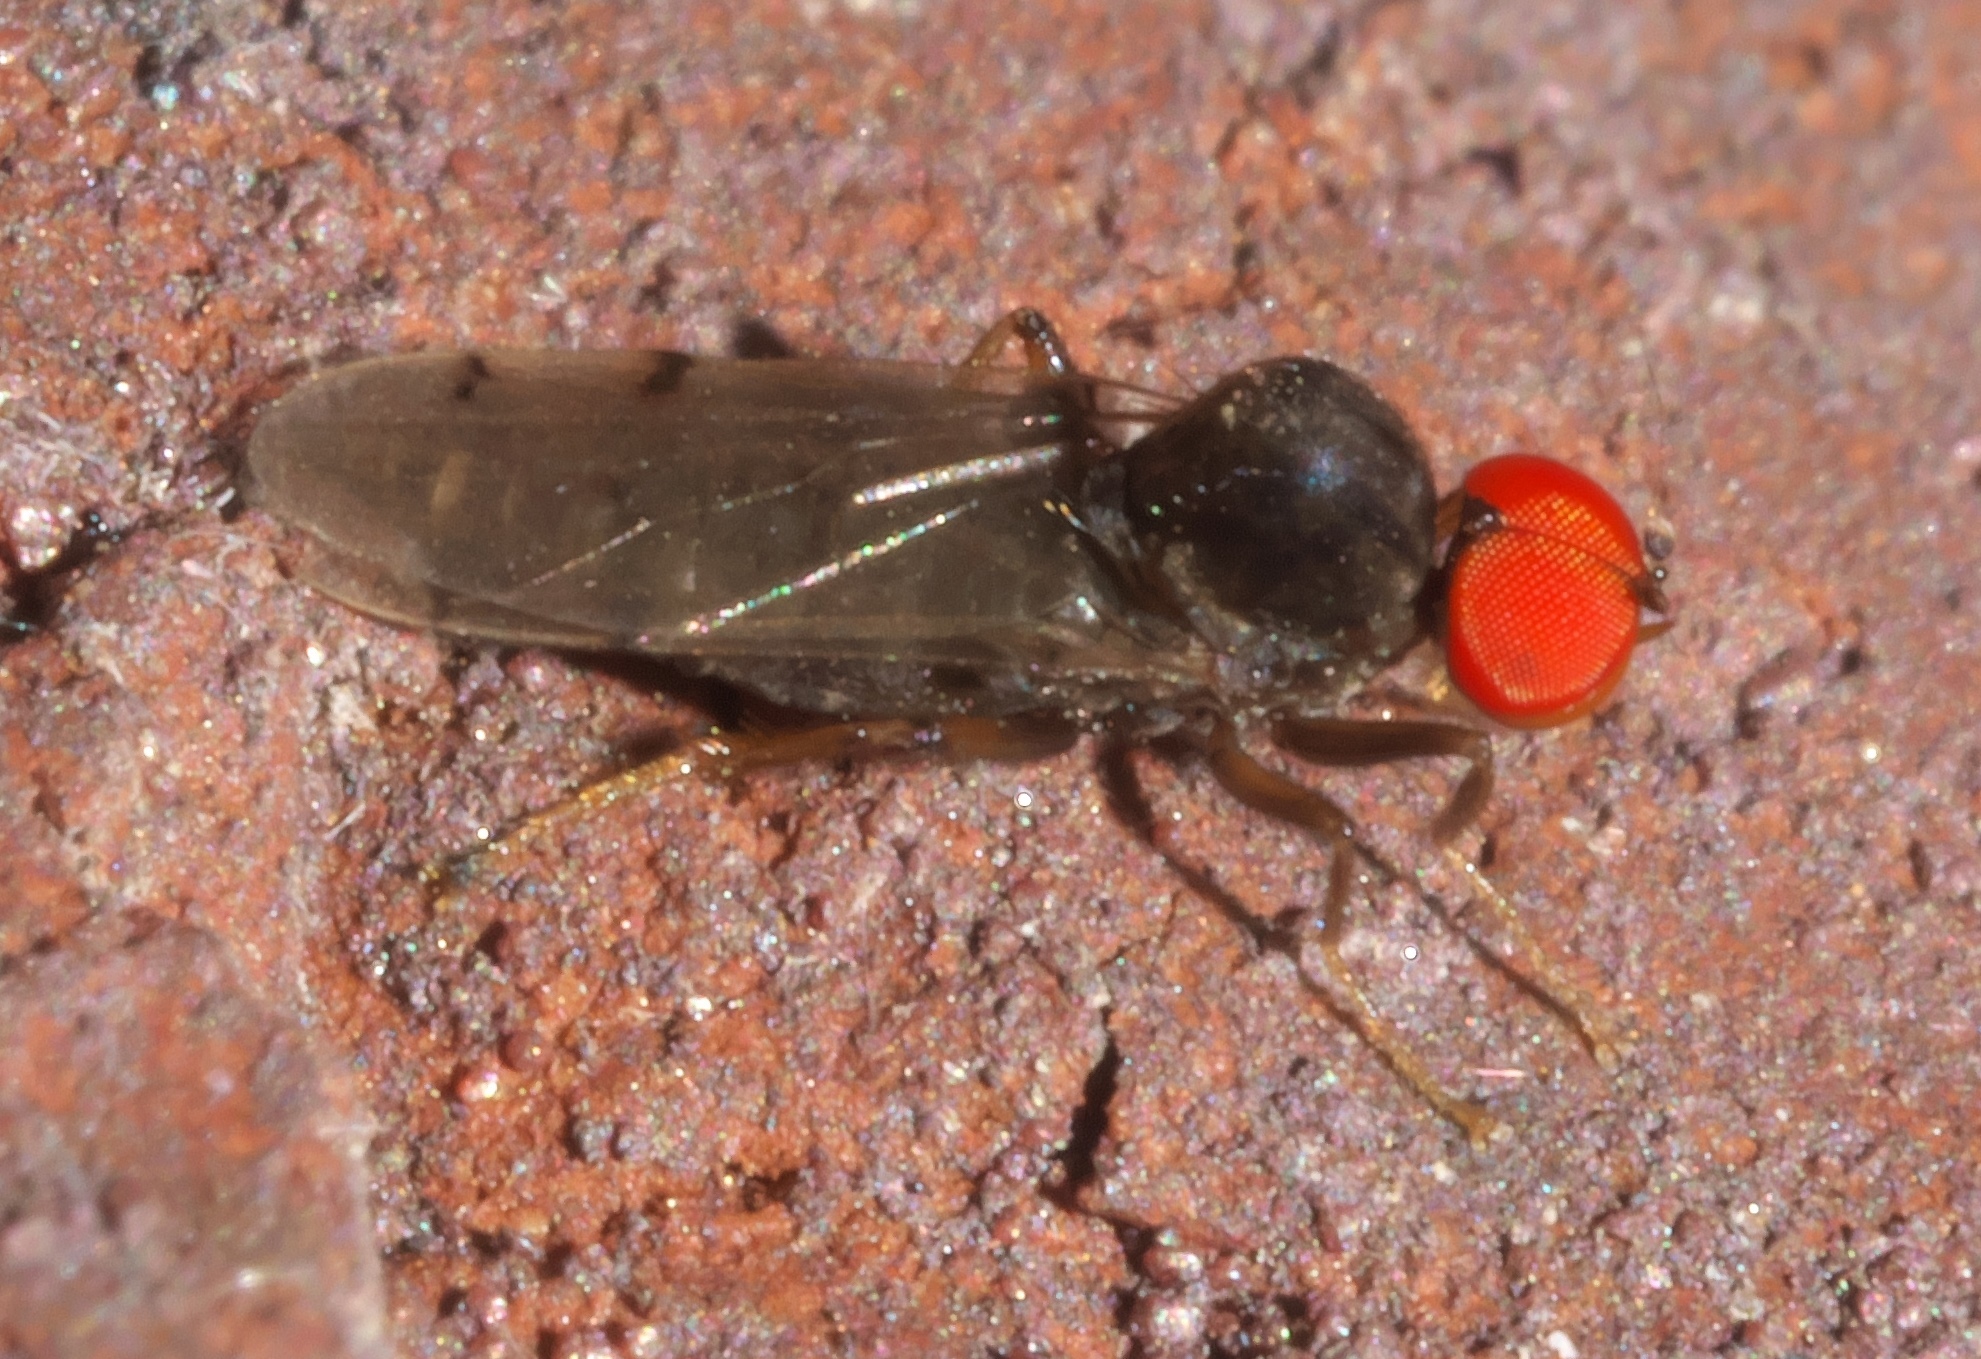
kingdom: Animalia
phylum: Arthropoda
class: Insecta
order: Diptera
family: Hybotidae
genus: Syneches
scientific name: Syneches simplex
